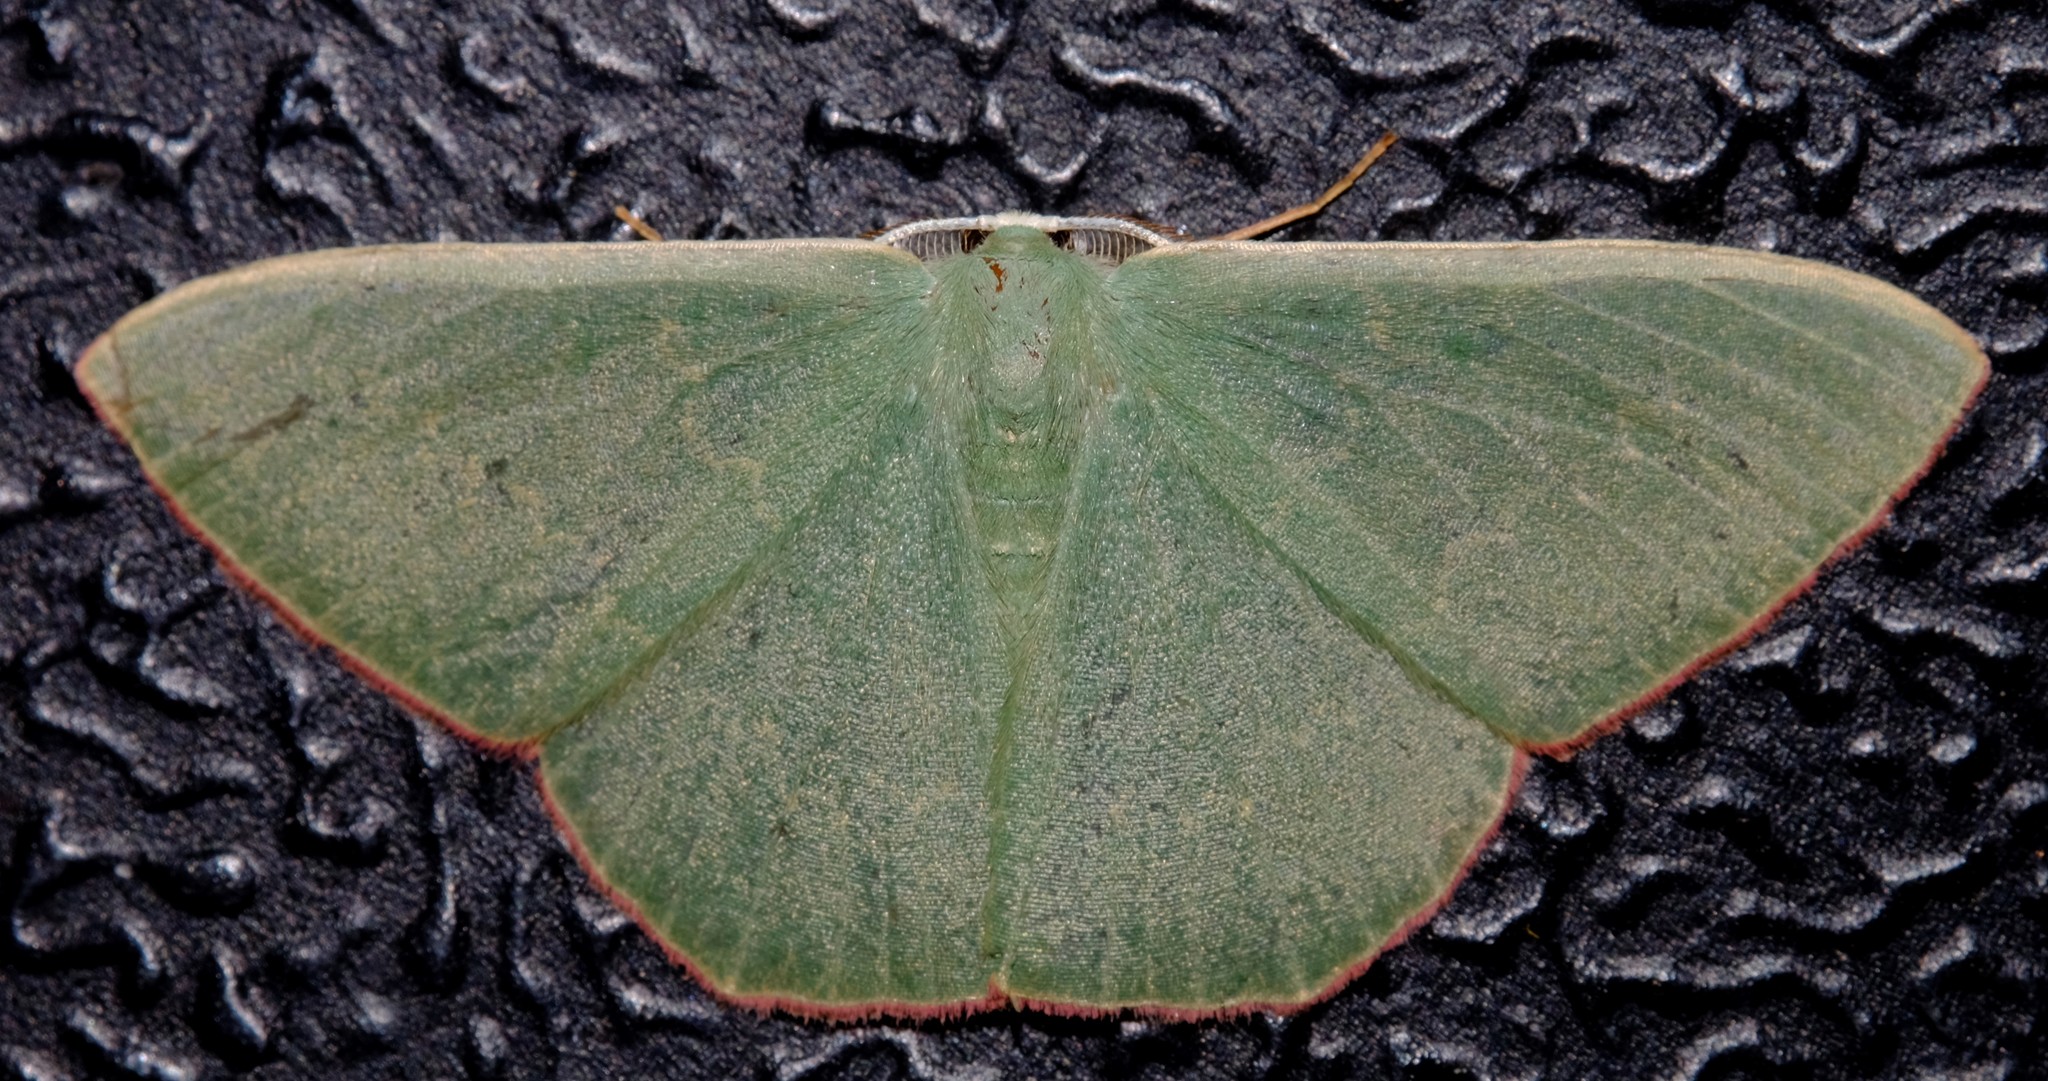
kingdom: Animalia
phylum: Arthropoda
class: Insecta
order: Lepidoptera
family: Geometridae
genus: Prasinocyma
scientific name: Prasinocyma semicrocea
